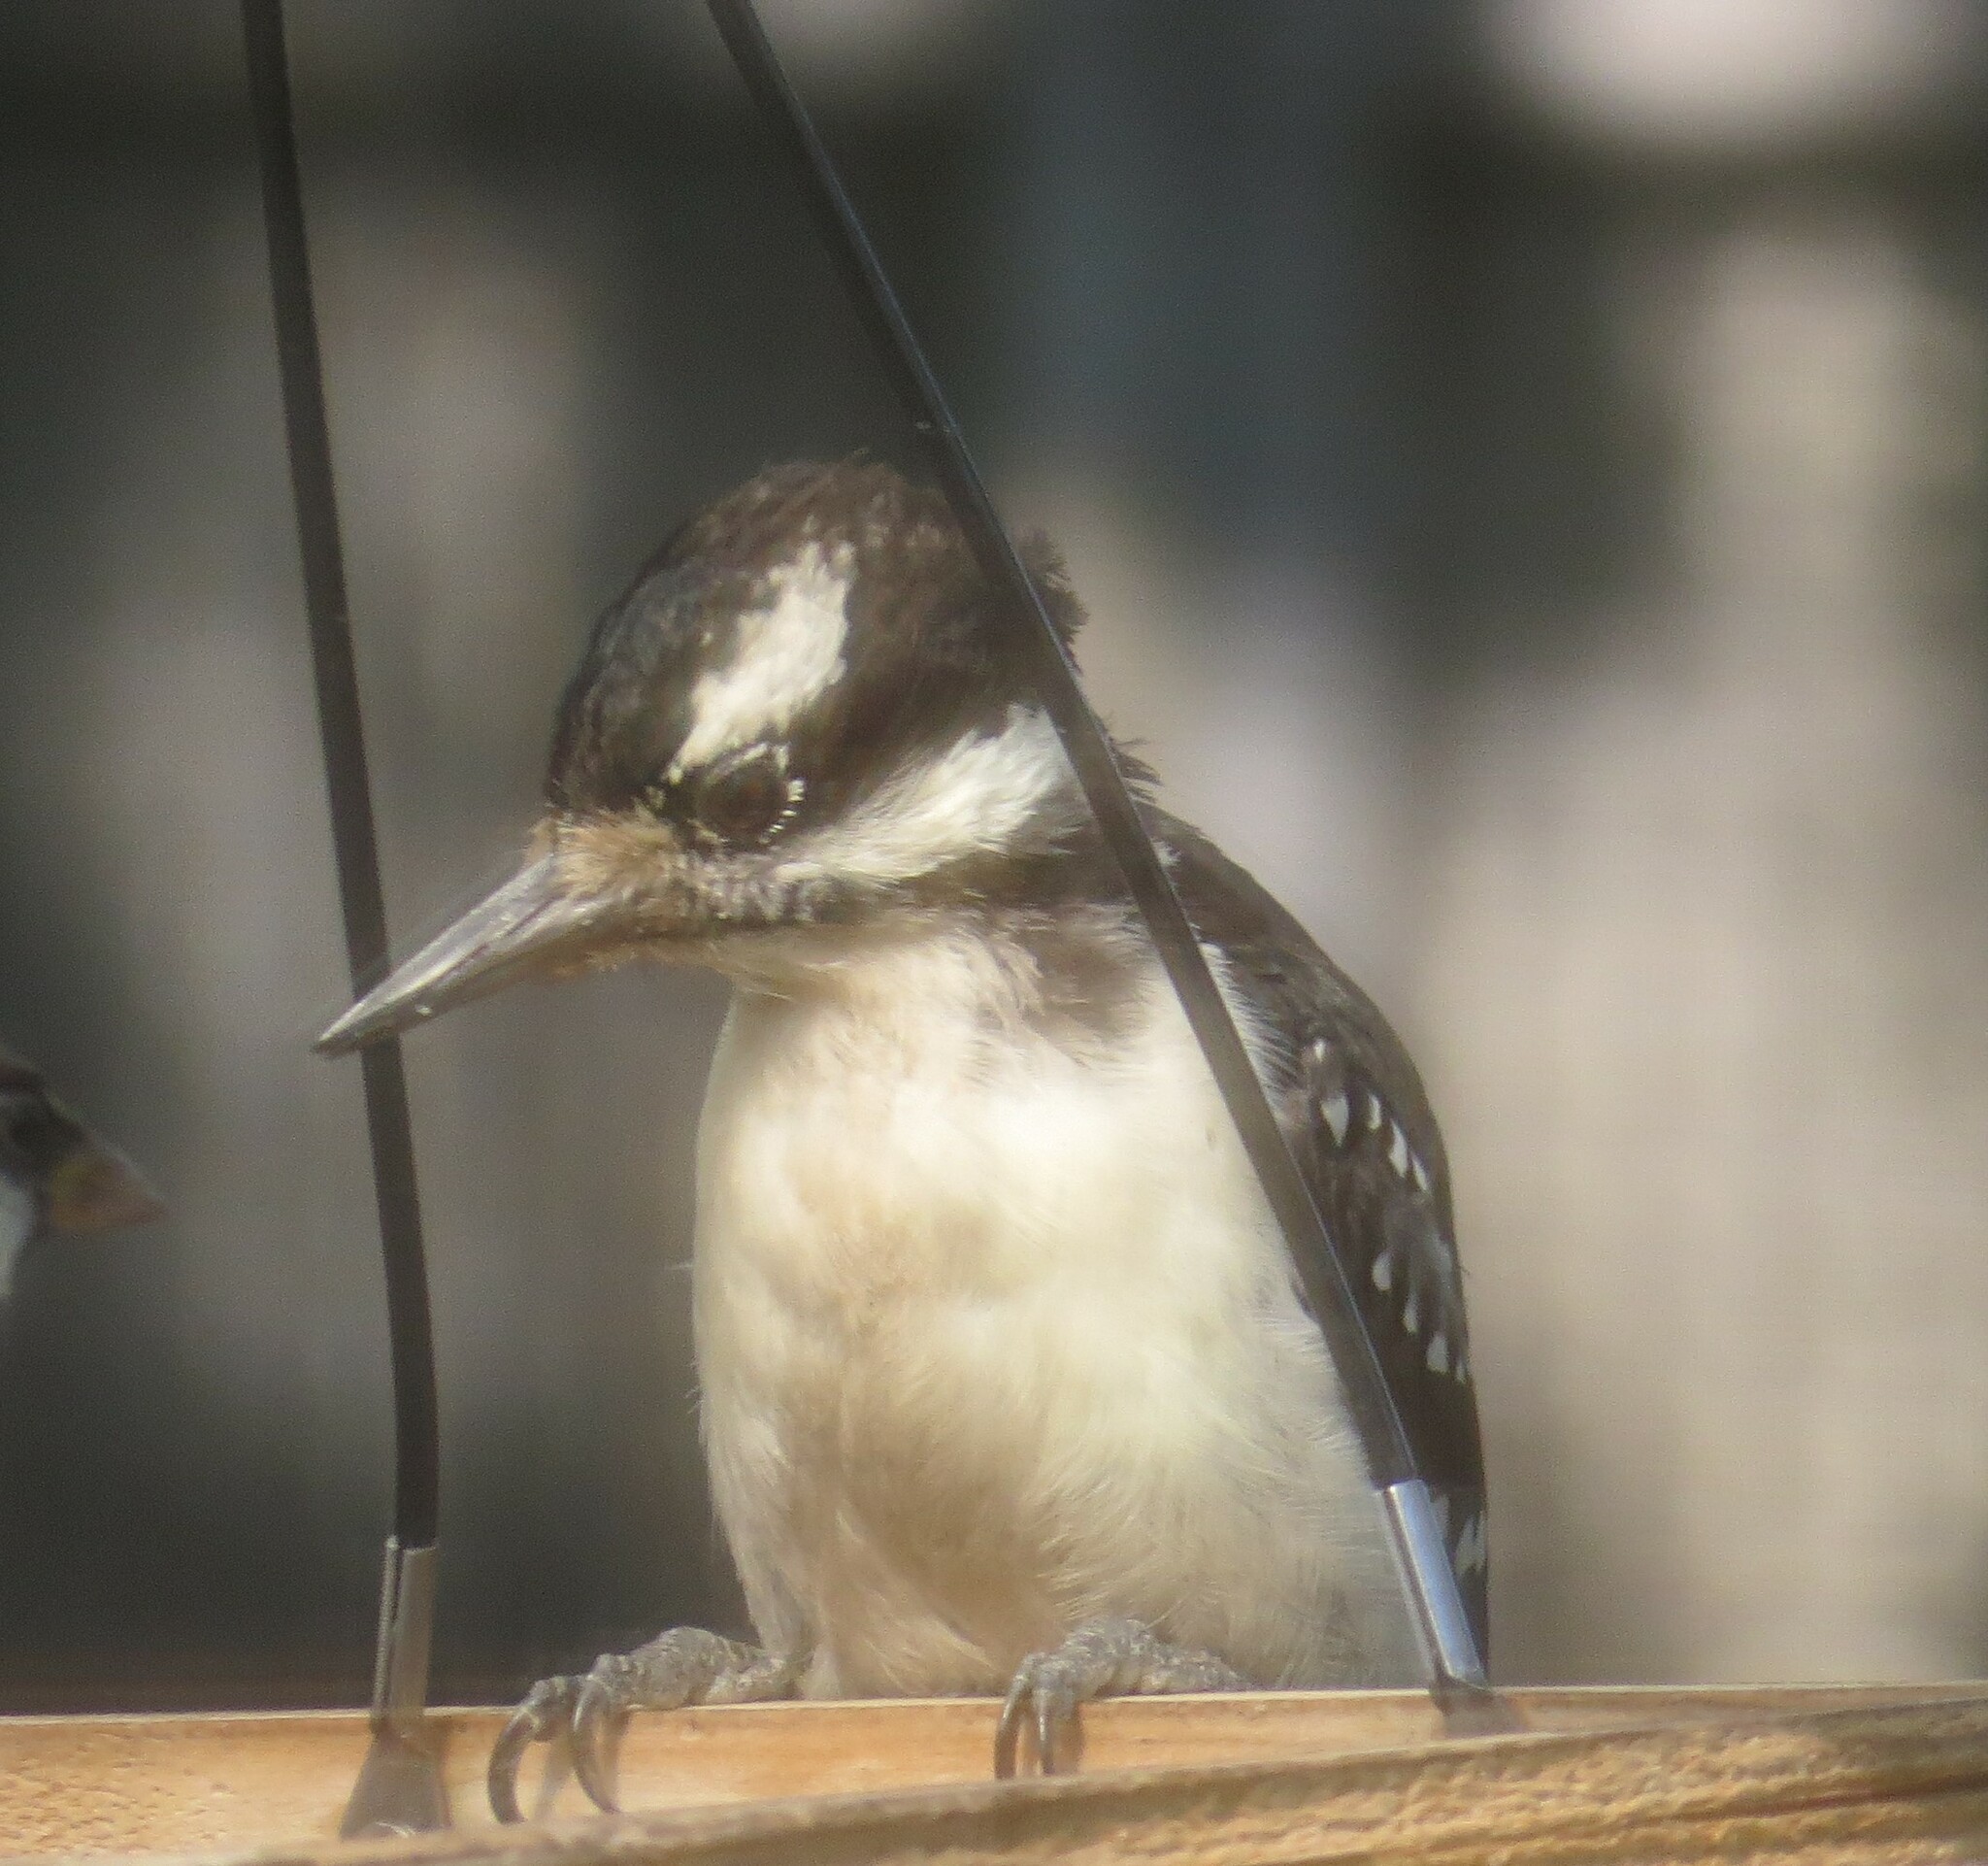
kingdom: Animalia
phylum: Chordata
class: Aves
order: Piciformes
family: Picidae
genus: Leuconotopicus
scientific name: Leuconotopicus villosus
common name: Hairy woodpecker
